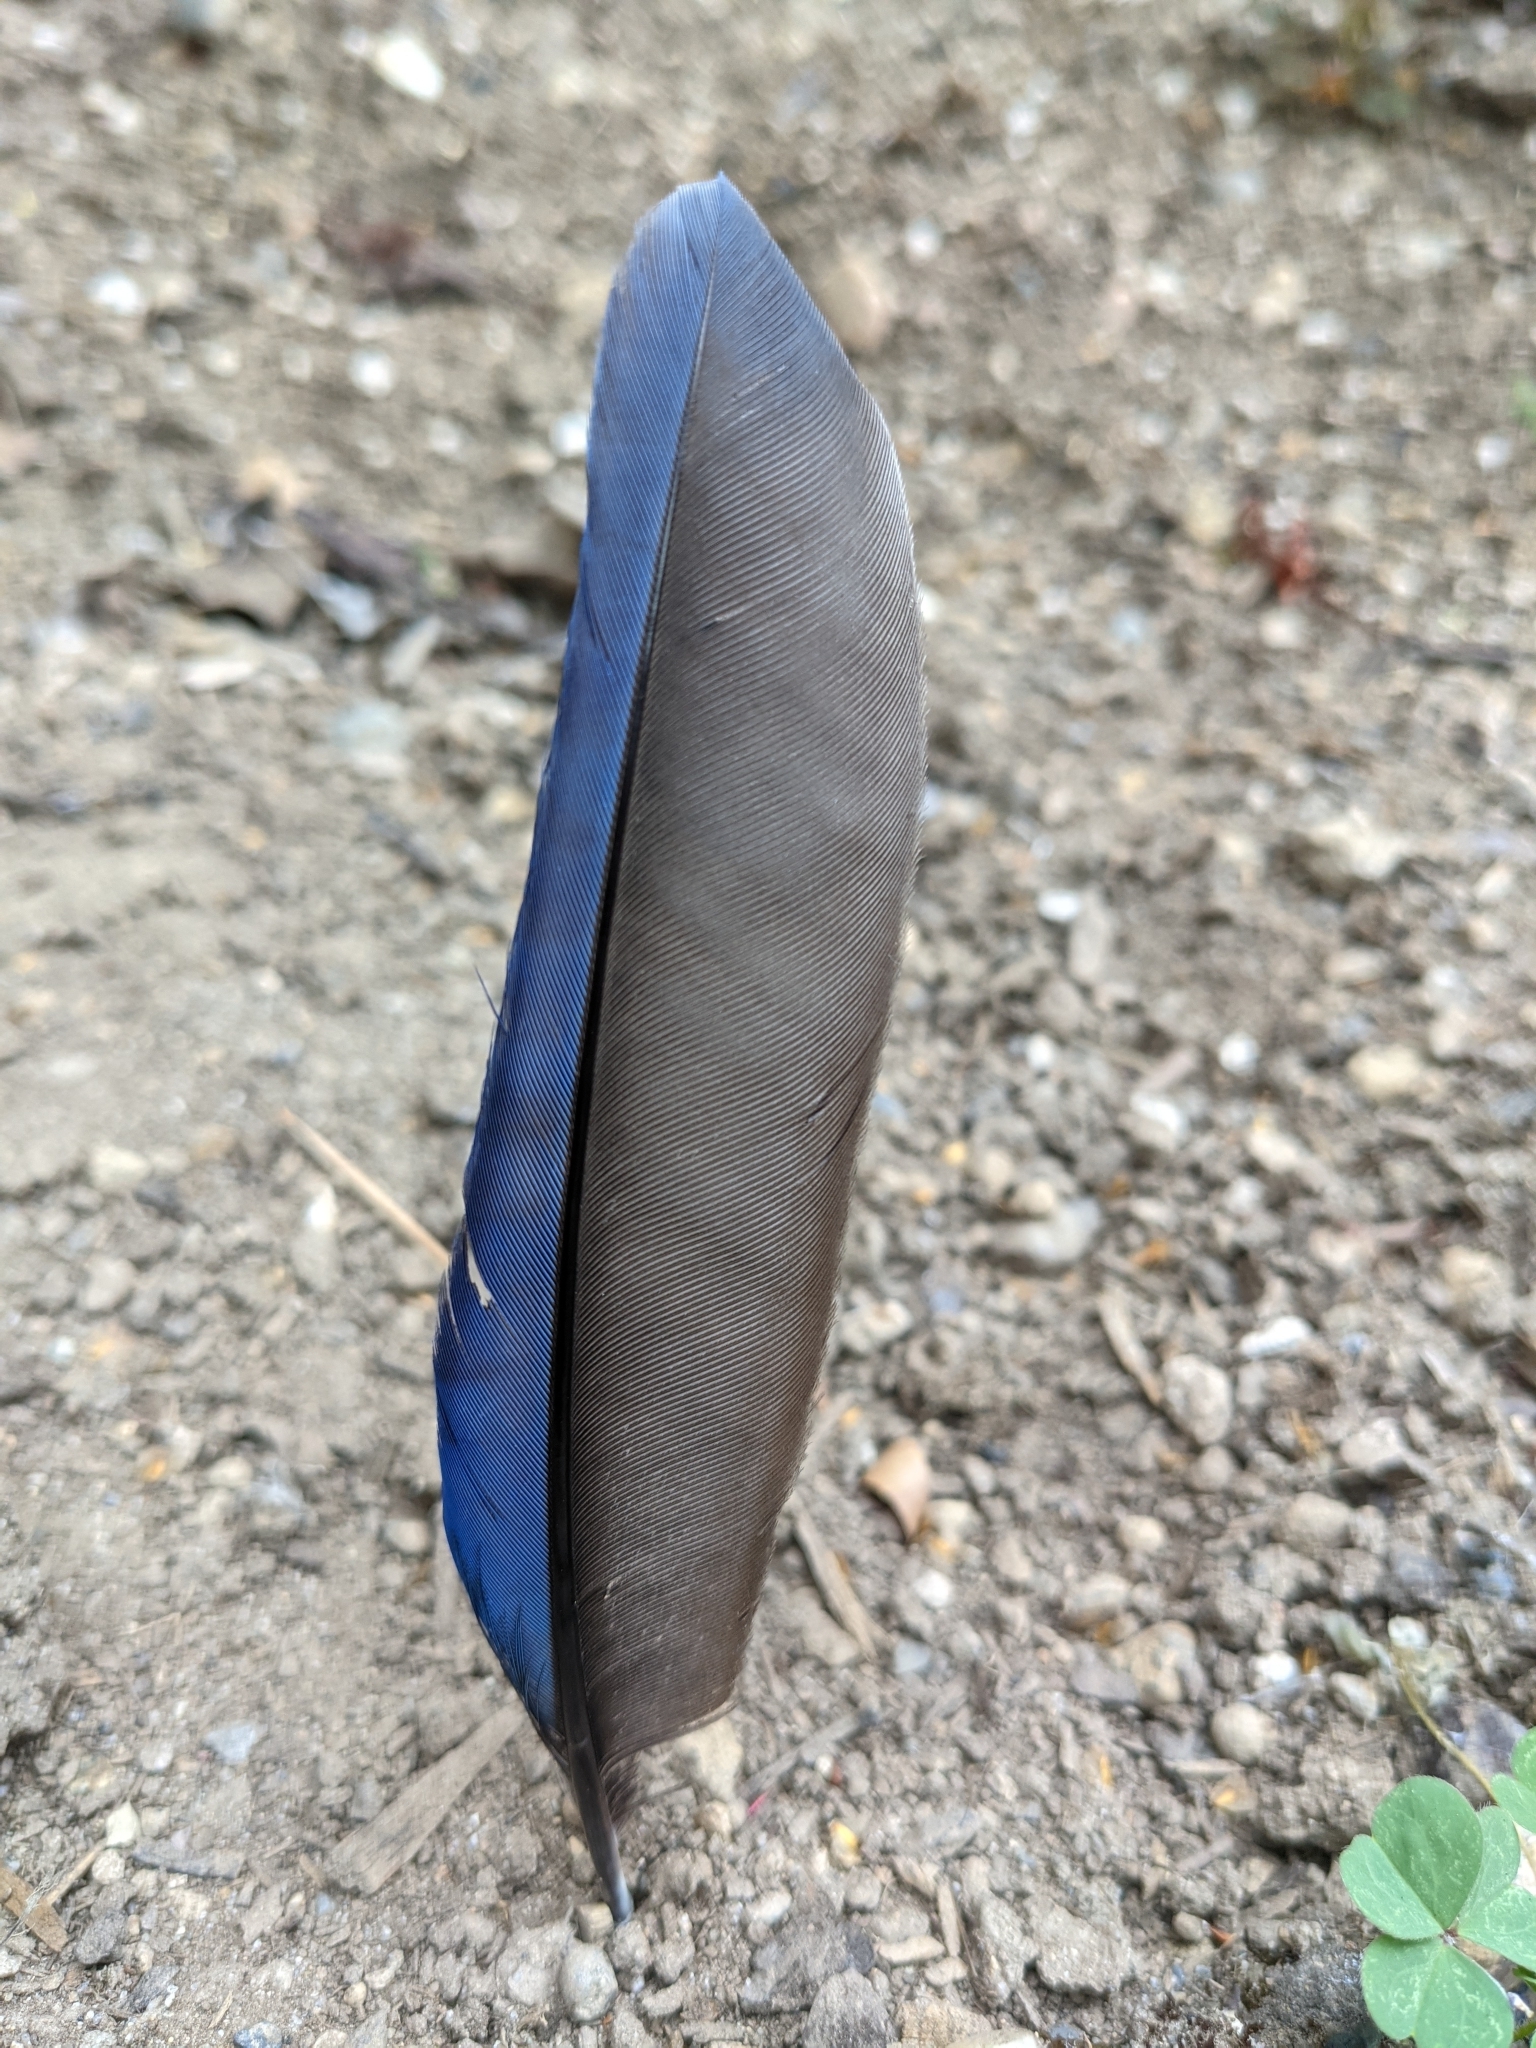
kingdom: Animalia
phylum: Chordata
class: Aves
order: Passeriformes
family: Corvidae
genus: Cyanocitta
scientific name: Cyanocitta stelleri
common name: Steller's jay
